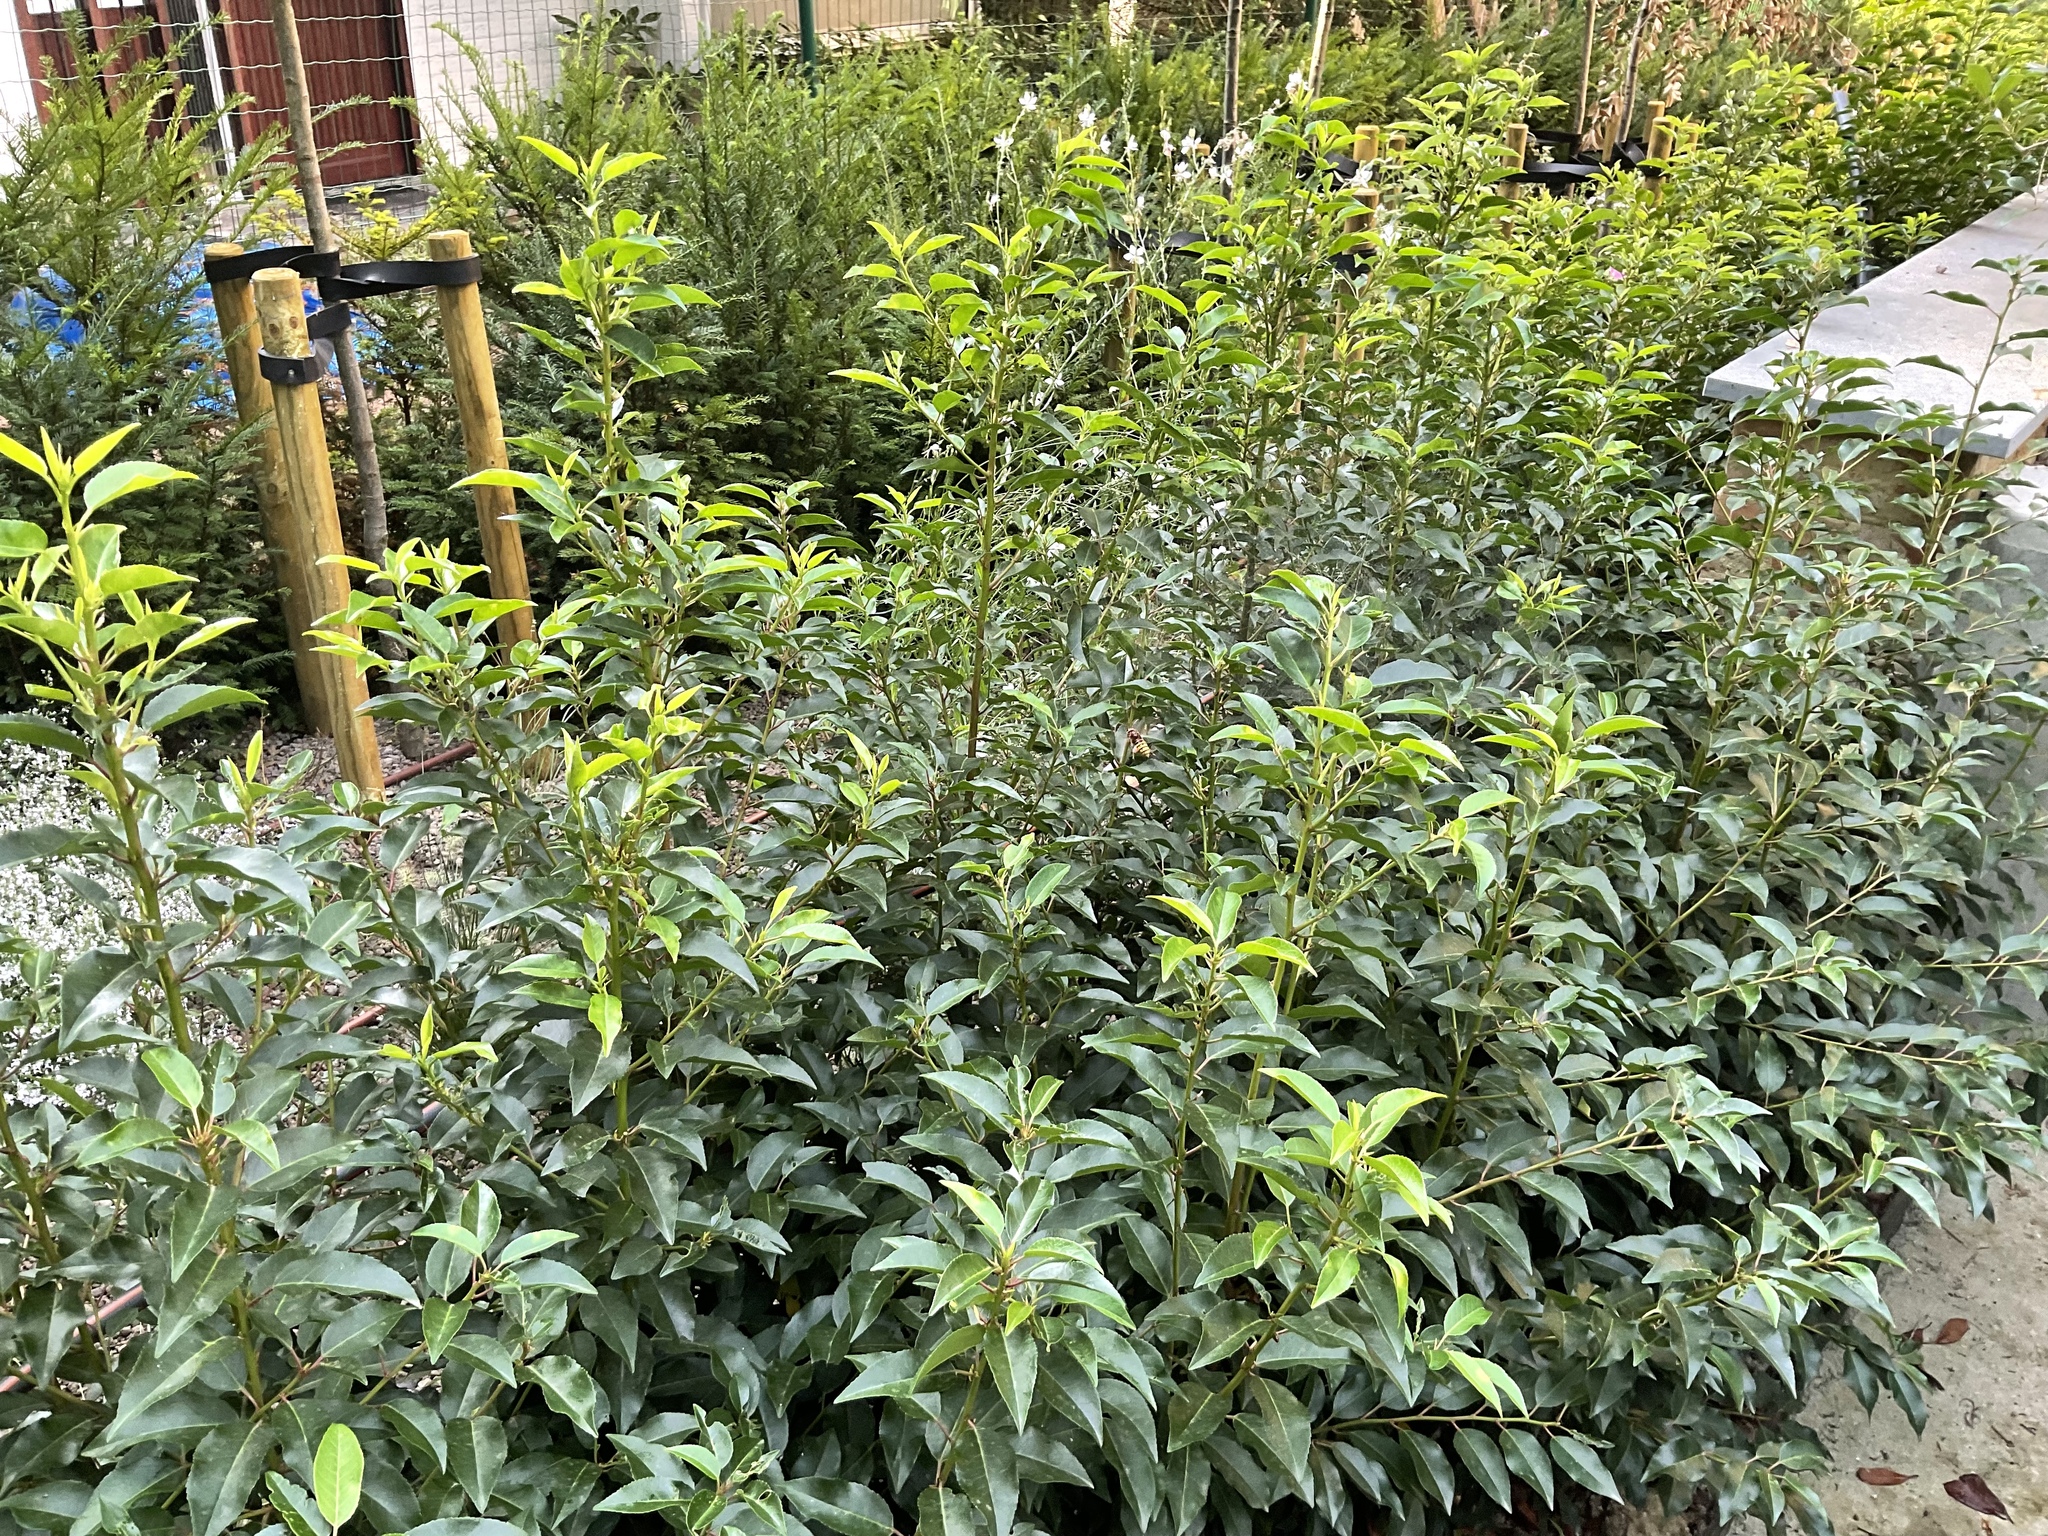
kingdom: Animalia
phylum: Arthropoda
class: Insecta
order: Hymenoptera
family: Vespidae
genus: Vespa
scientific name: Vespa crabro
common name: Hornet
